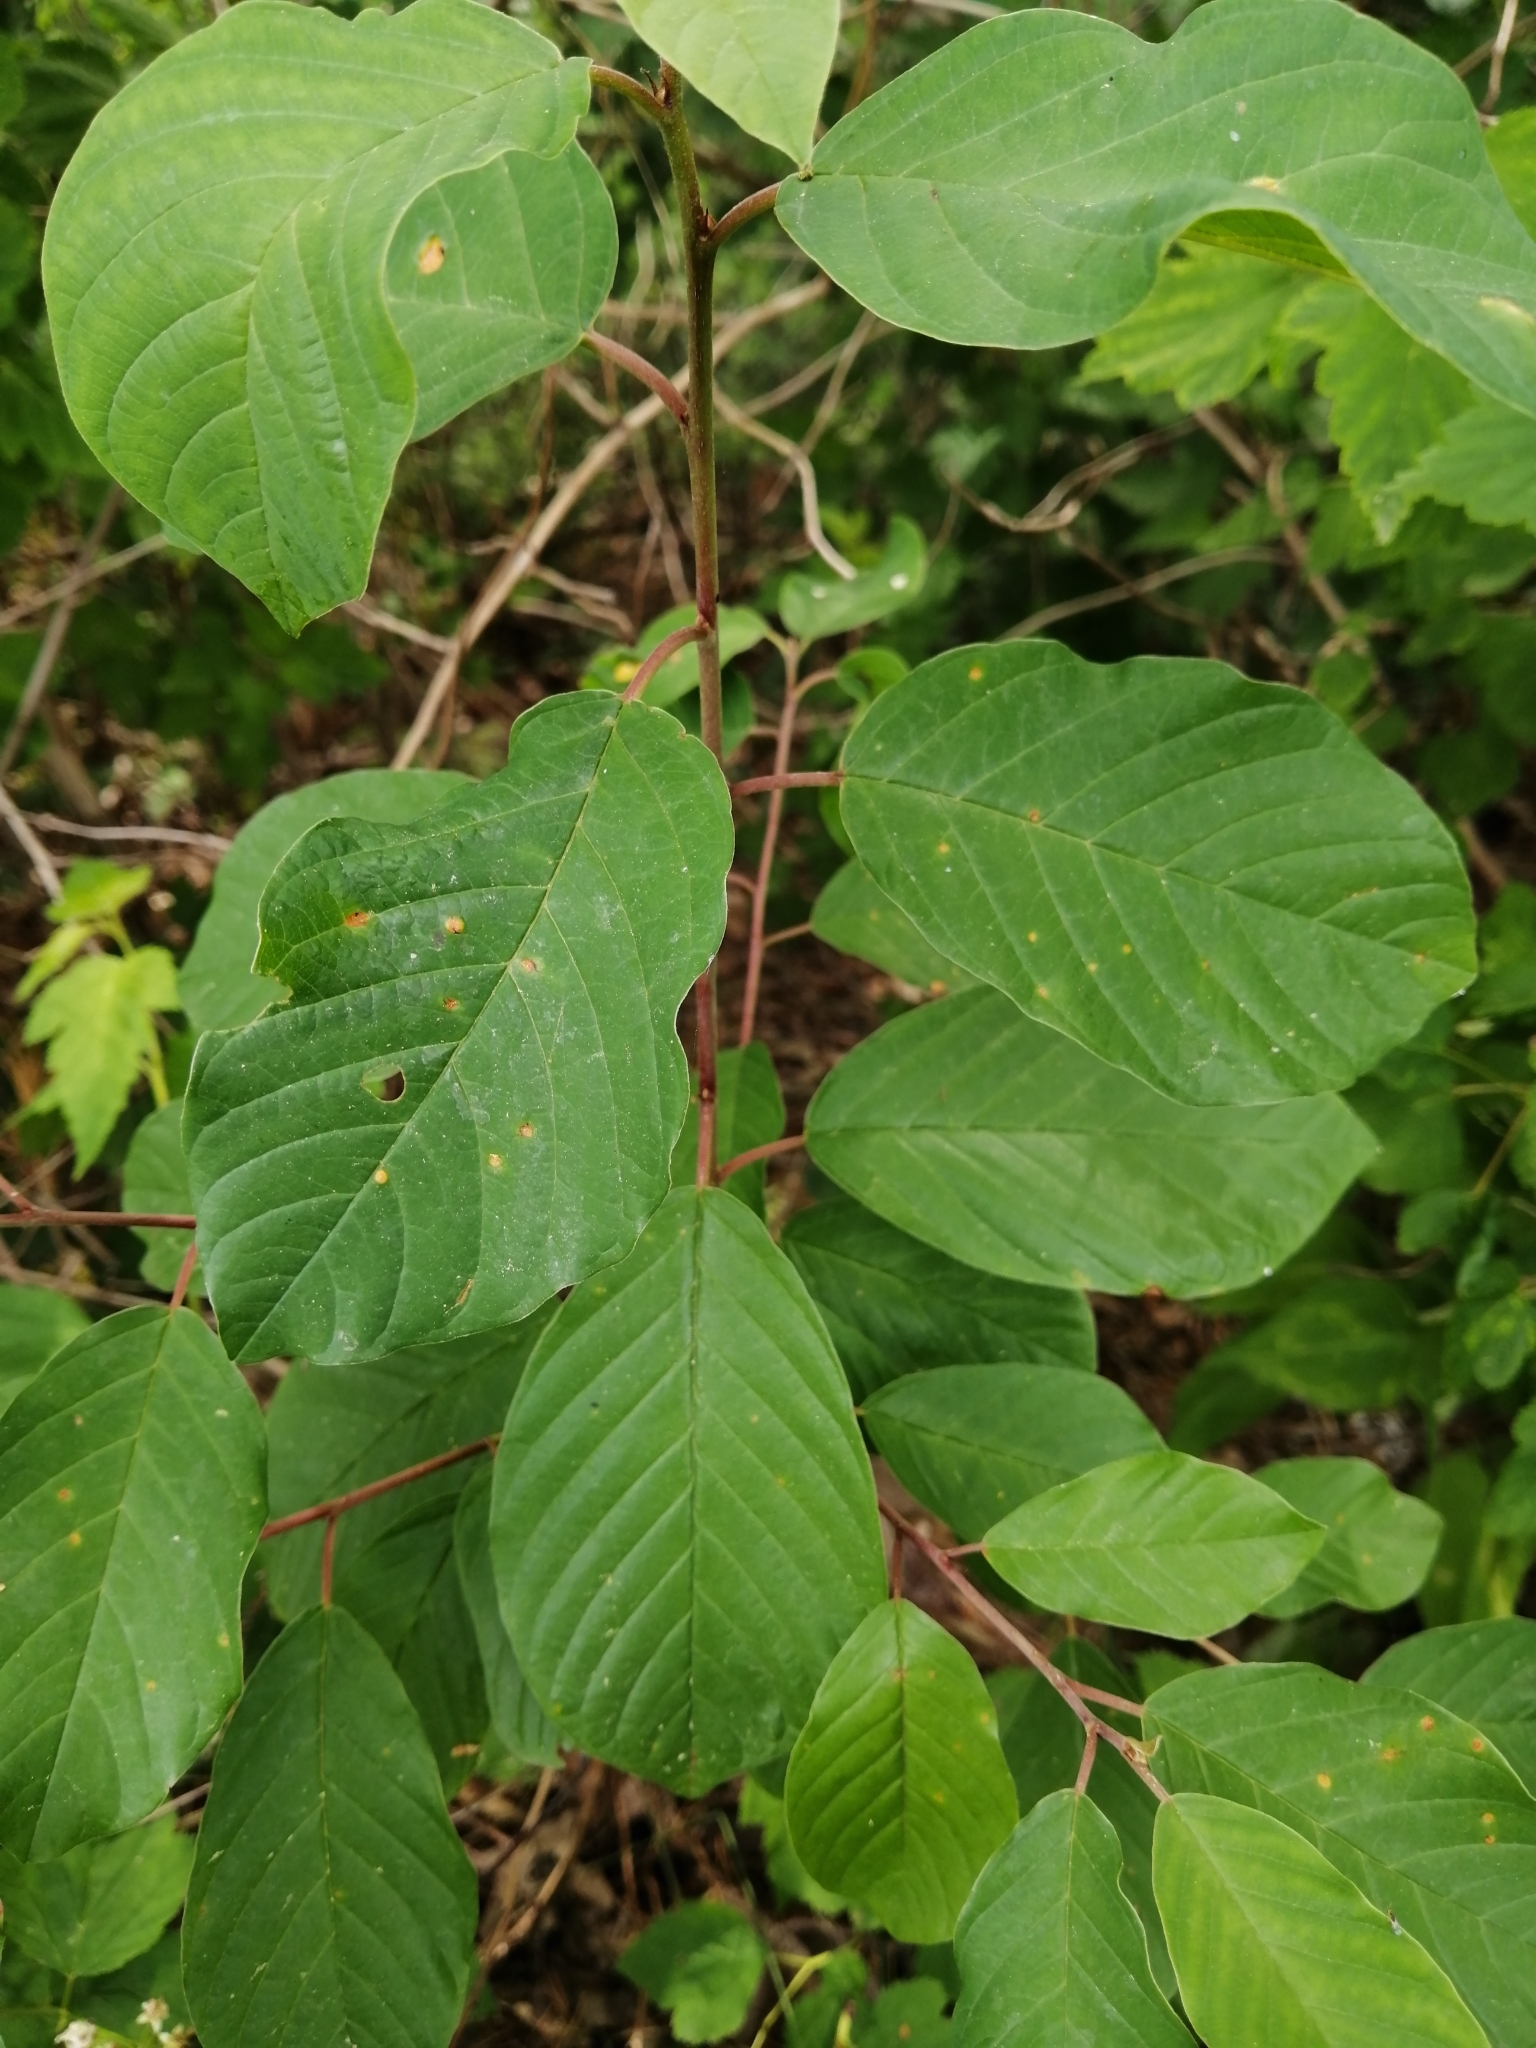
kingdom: Plantae
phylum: Tracheophyta
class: Magnoliopsida
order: Rosales
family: Rhamnaceae
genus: Frangula
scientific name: Frangula alnus
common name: Alder buckthorn
